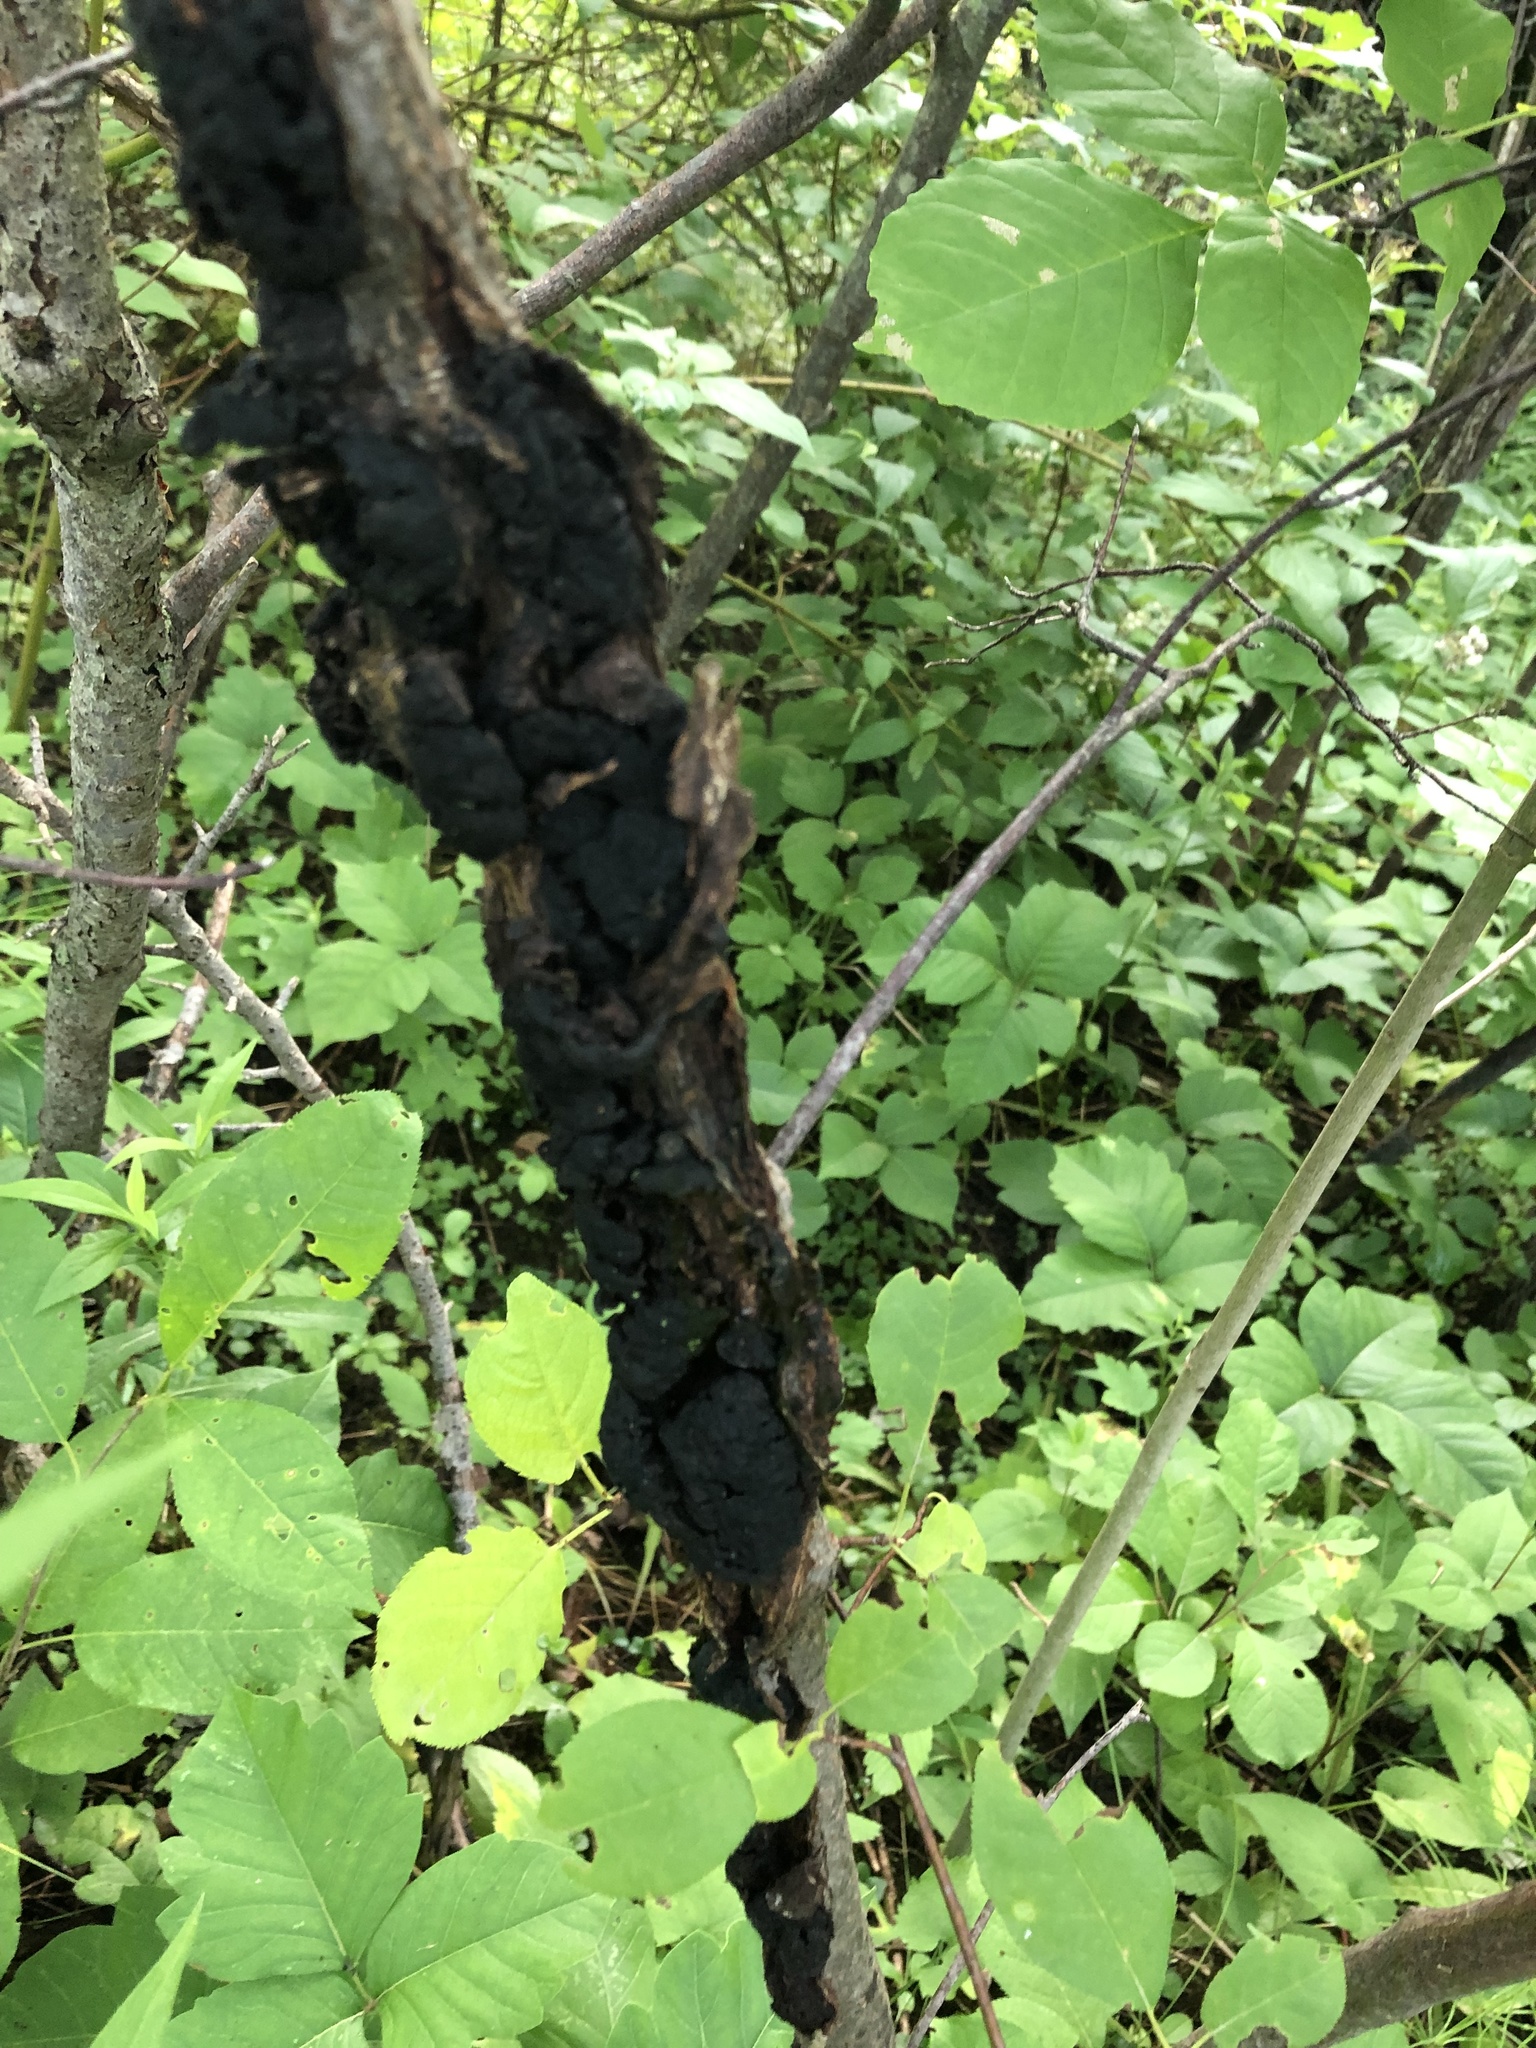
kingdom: Fungi
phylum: Ascomycota
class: Dothideomycetes
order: Venturiales
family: Venturiaceae
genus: Apiosporina
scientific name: Apiosporina morbosa
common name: Black knot
